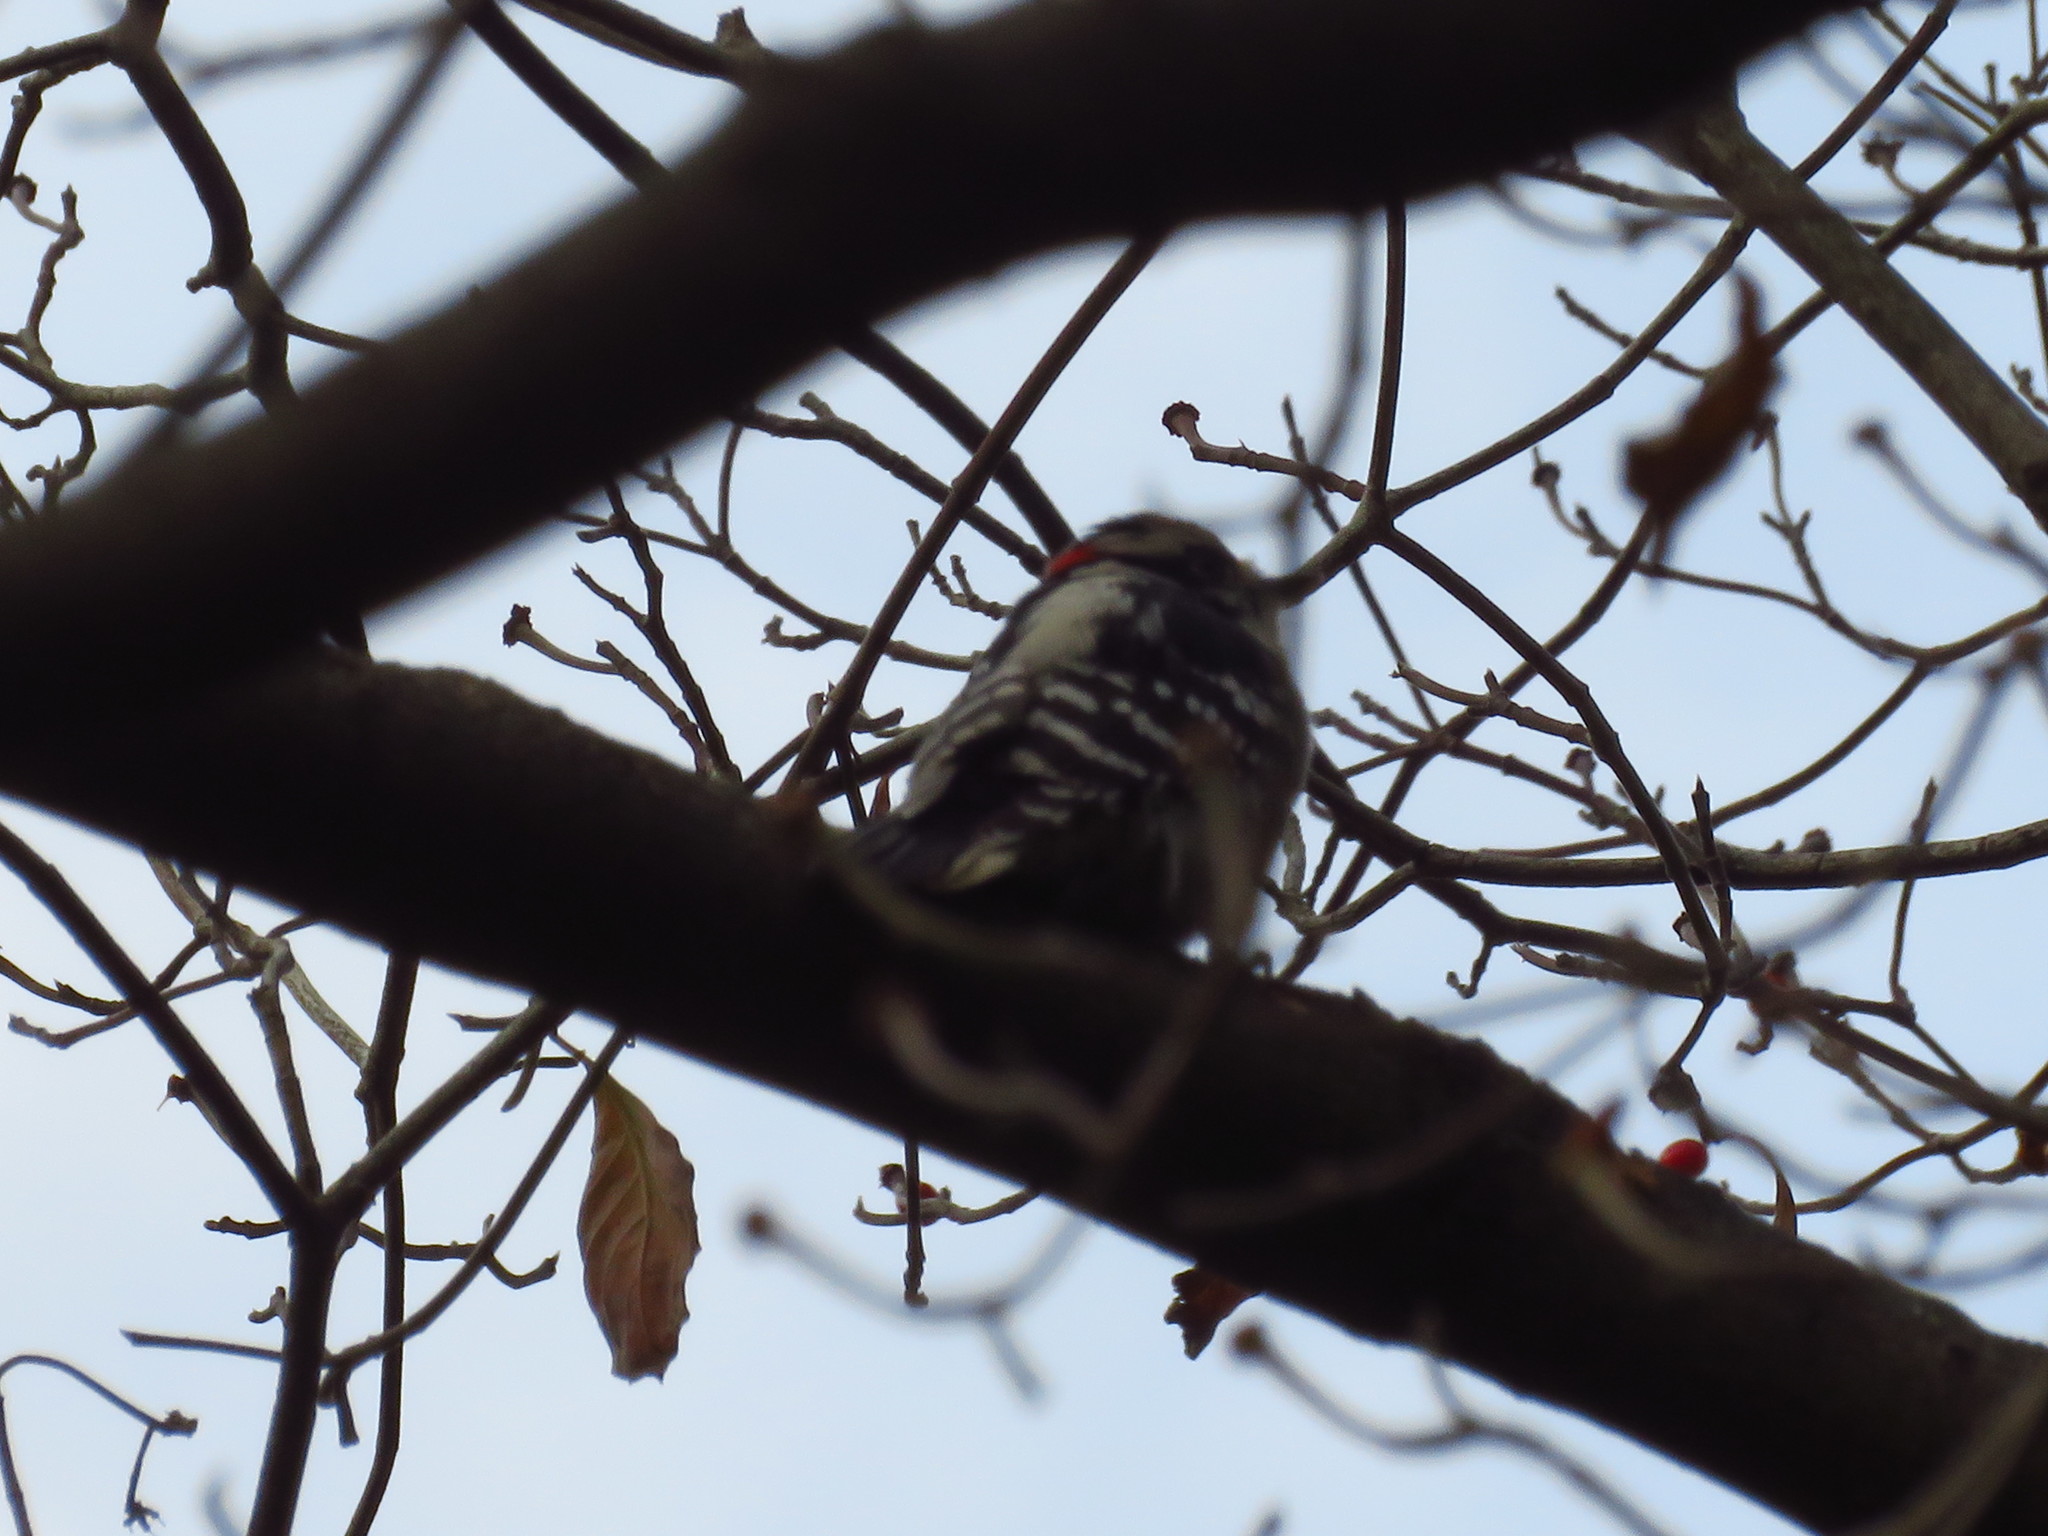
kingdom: Animalia
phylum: Chordata
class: Aves
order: Piciformes
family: Picidae
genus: Dryobates
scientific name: Dryobates pubescens
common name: Downy woodpecker
